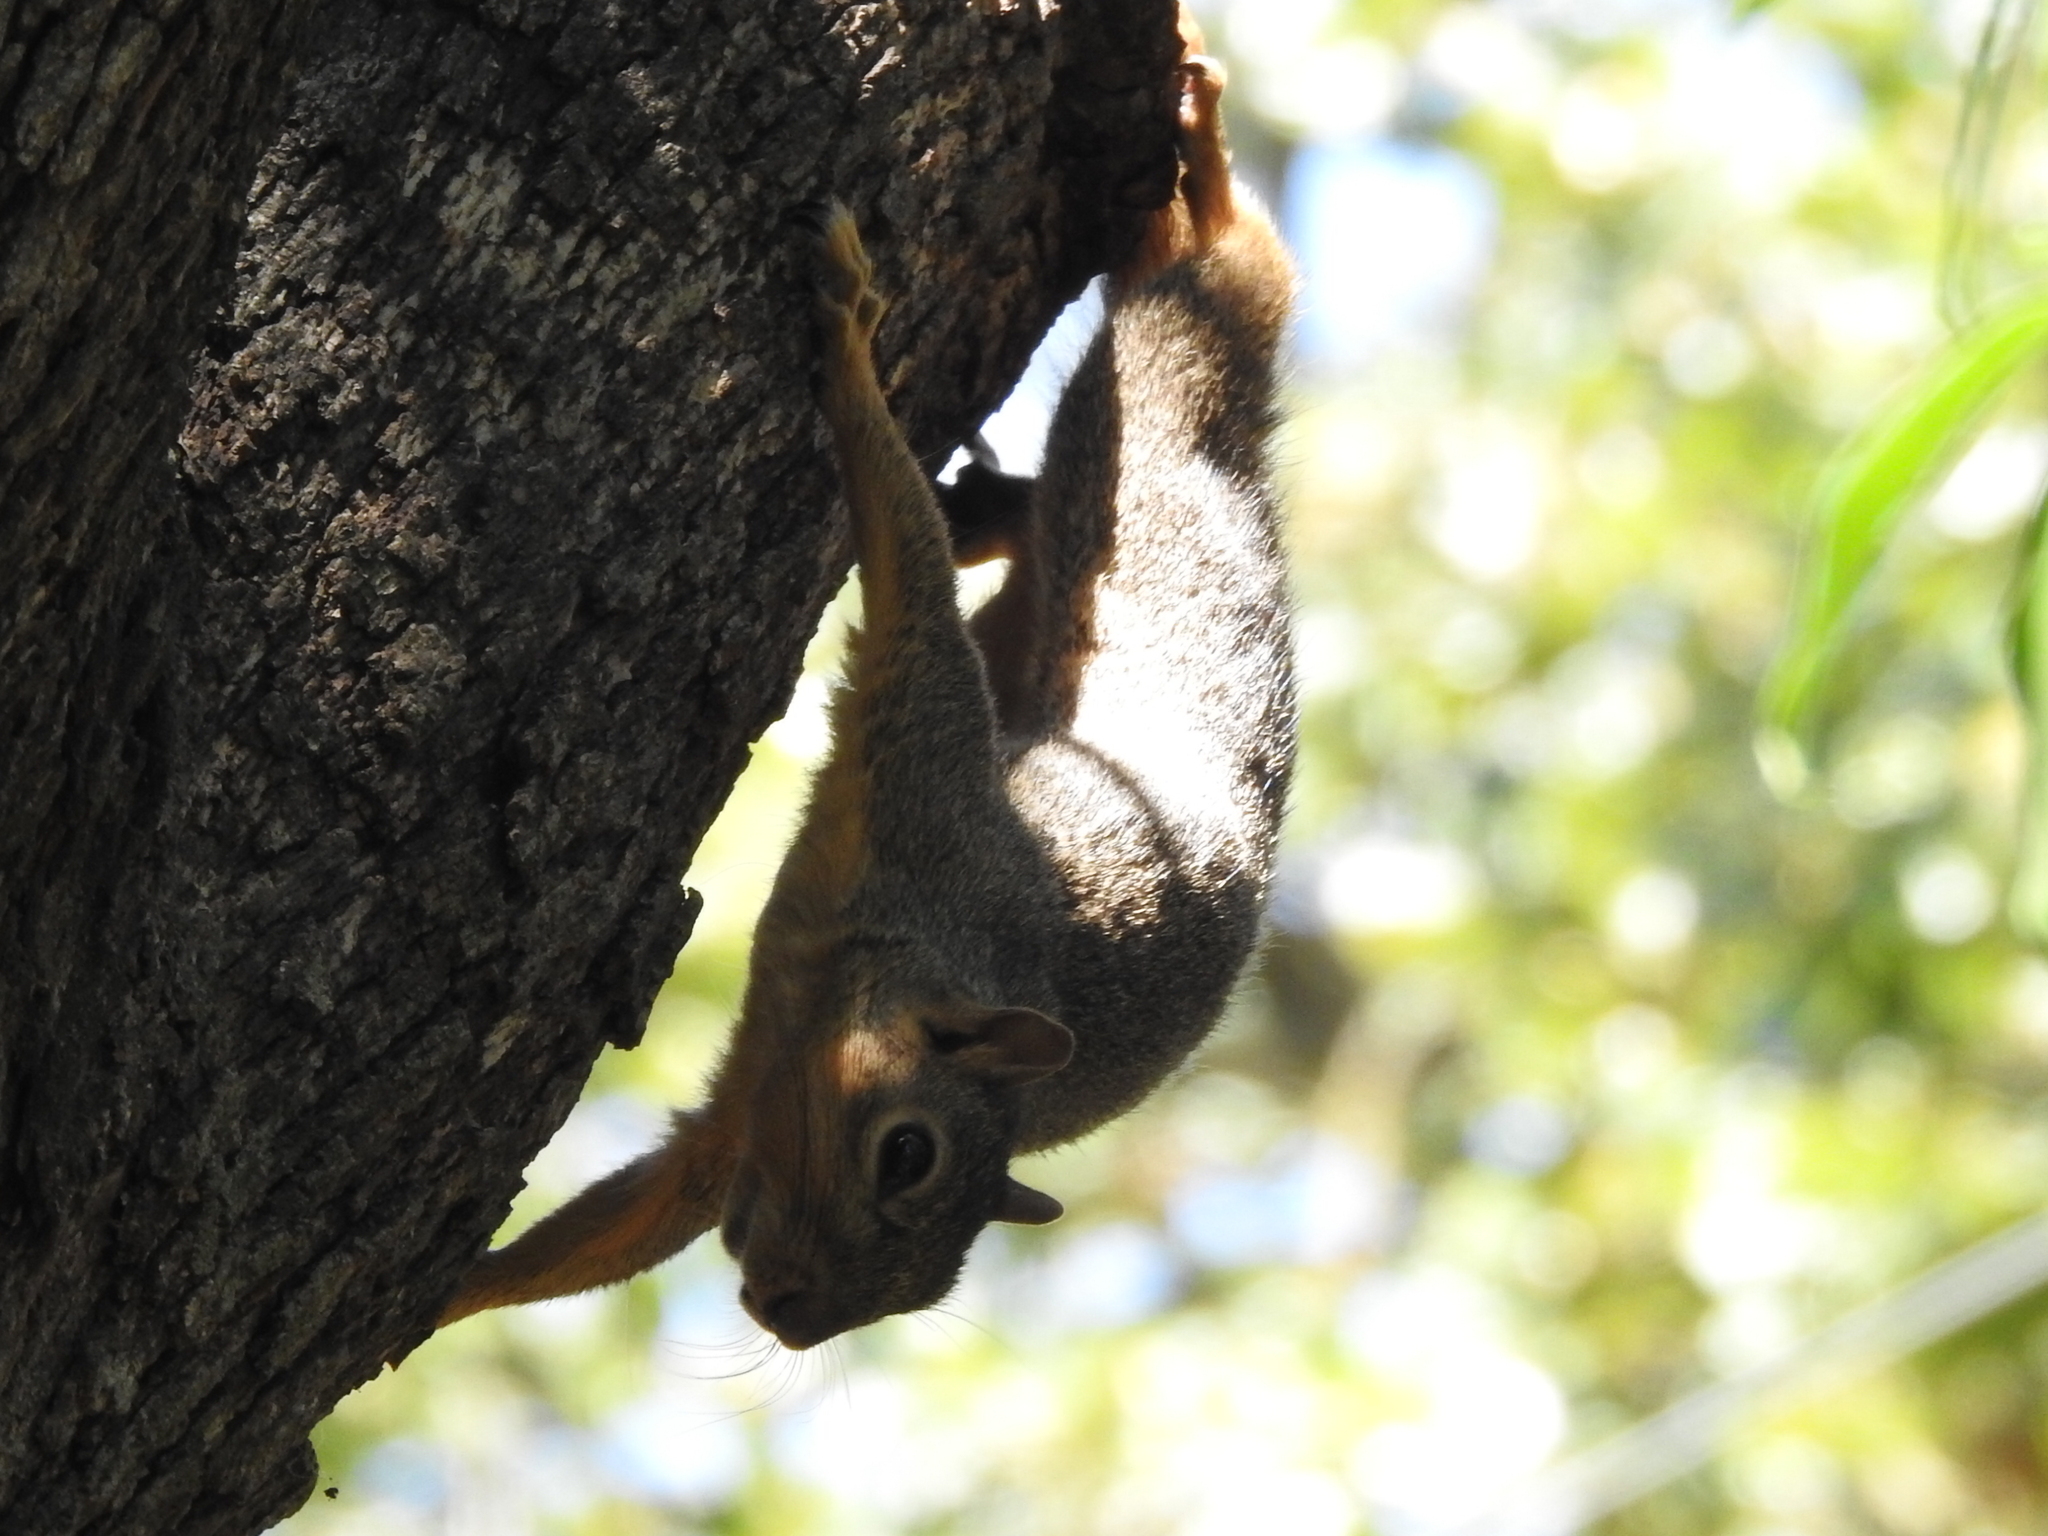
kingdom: Animalia
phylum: Chordata
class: Mammalia
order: Rodentia
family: Sciuridae
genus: Sciurus
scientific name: Sciurus niger
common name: Fox squirrel
